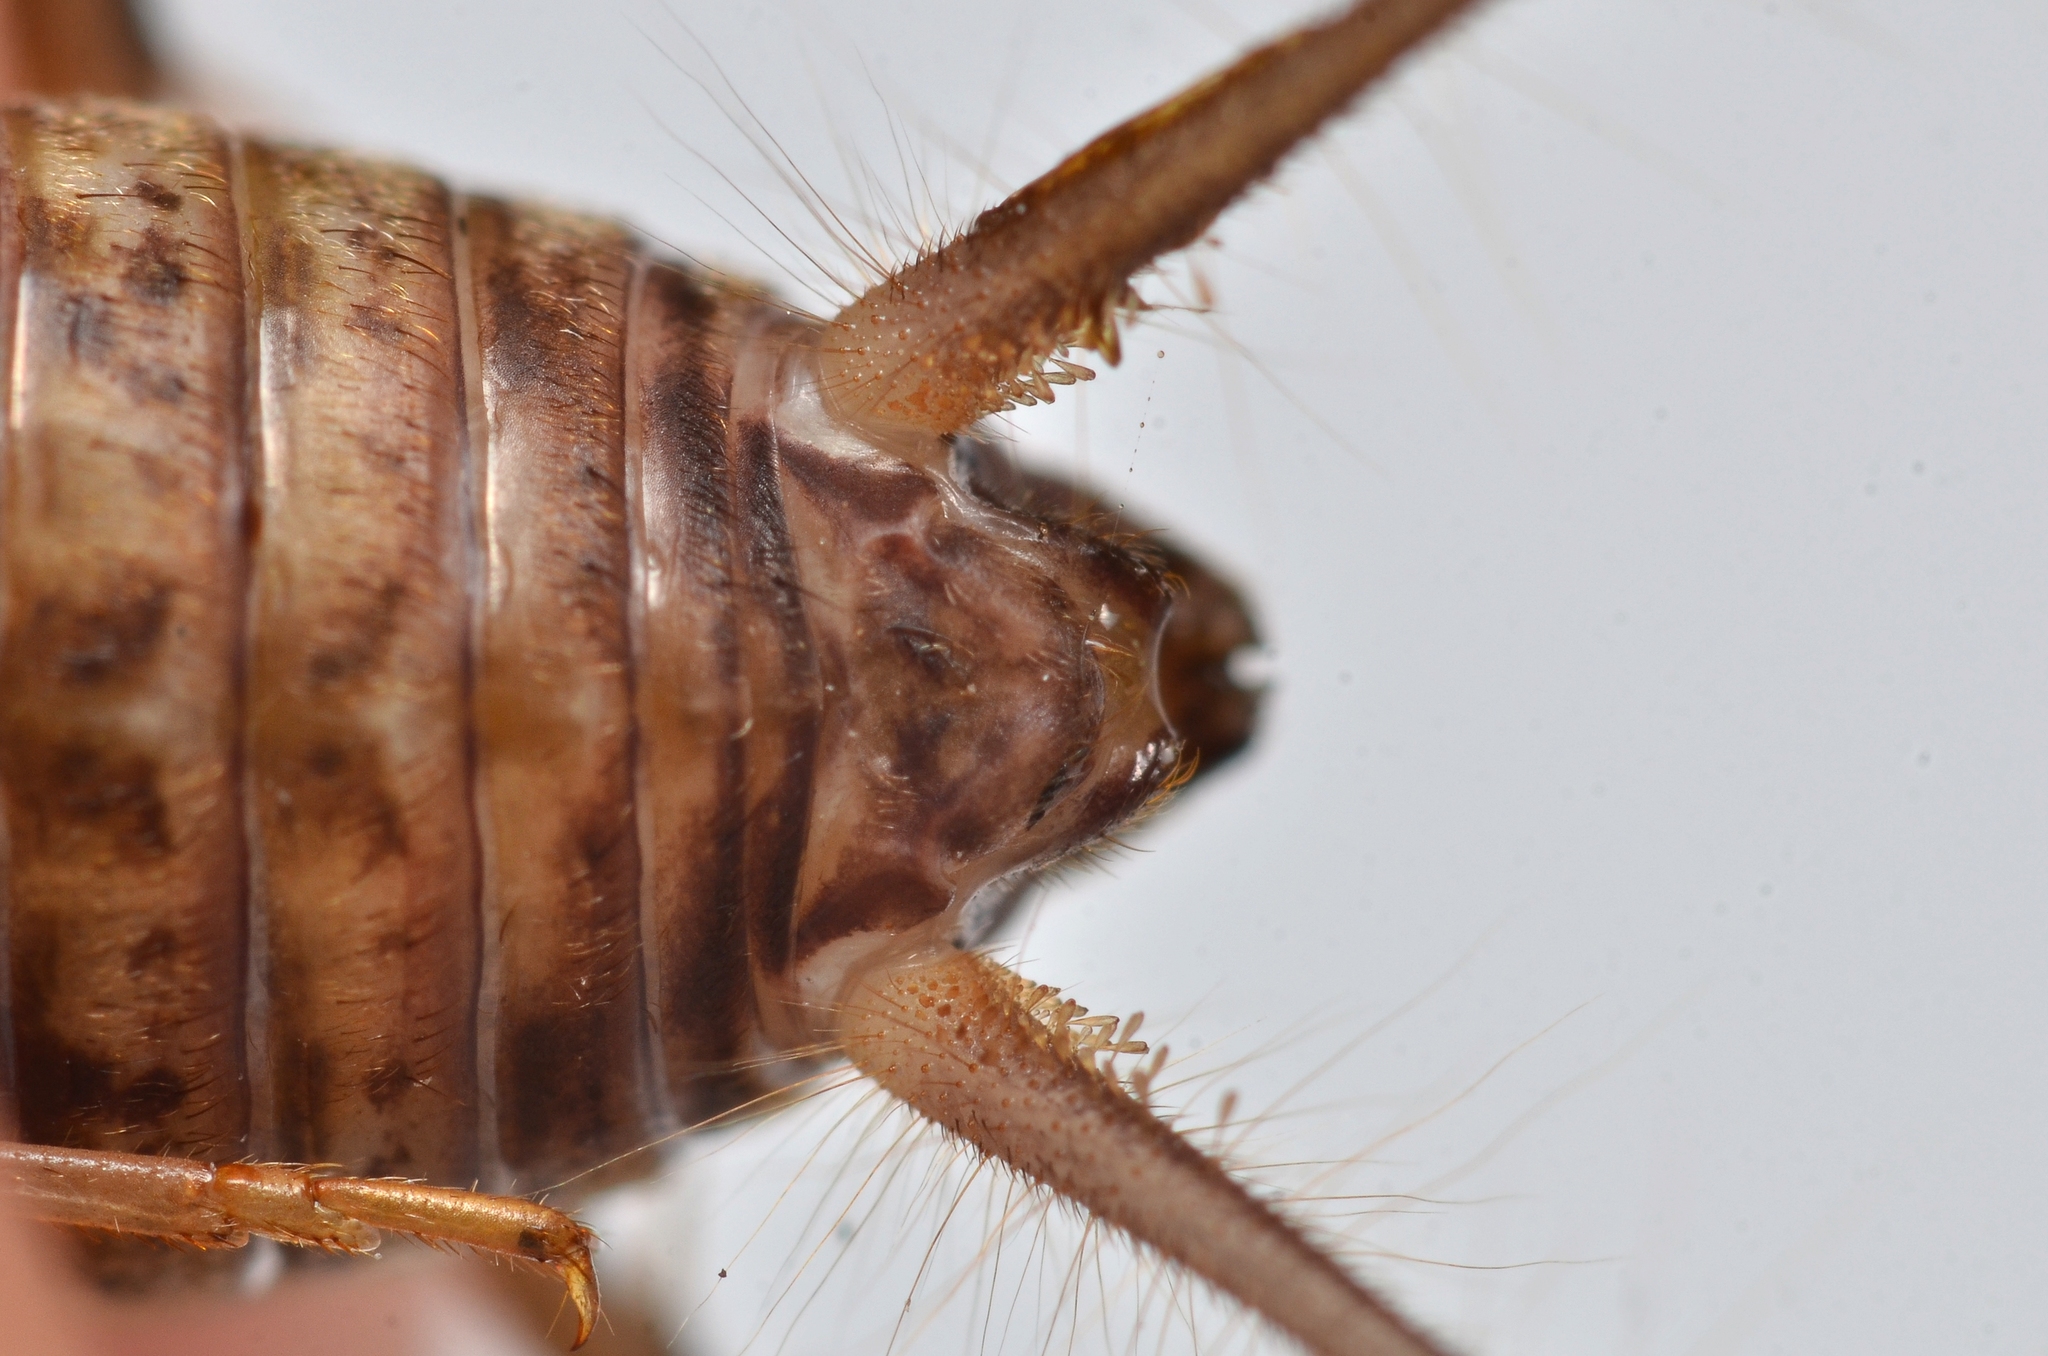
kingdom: Animalia
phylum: Arthropoda
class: Insecta
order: Orthoptera
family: Gryllidae
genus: Gryllomorpha
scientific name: Gryllomorpha dalmatina
